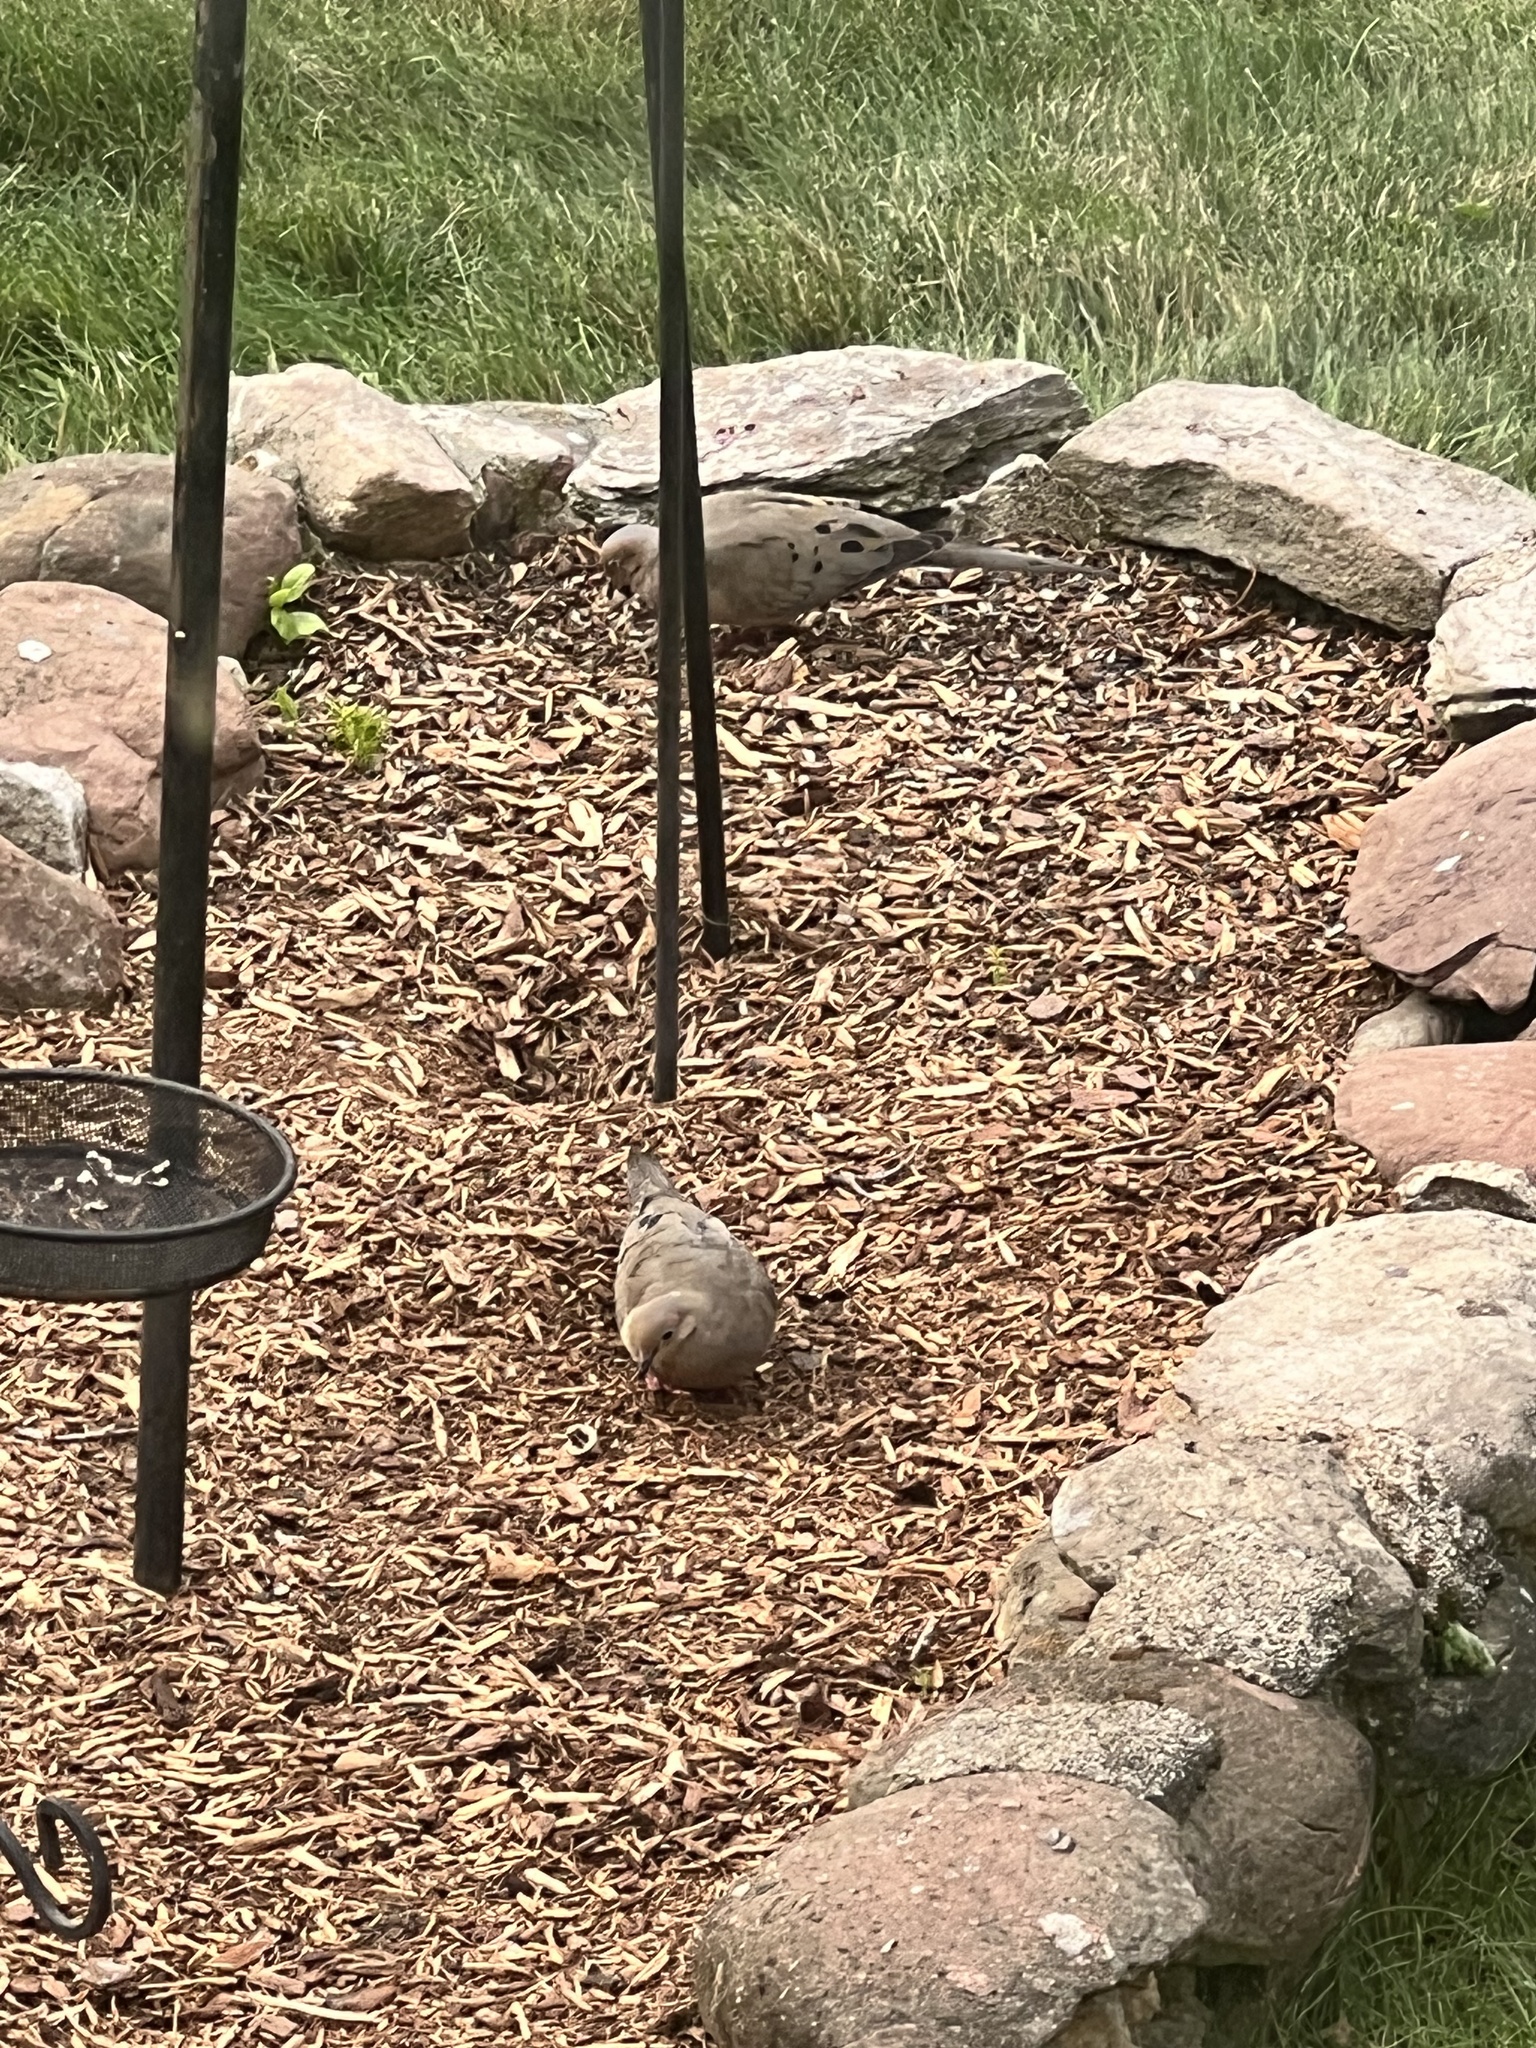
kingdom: Animalia
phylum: Chordata
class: Aves
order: Columbiformes
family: Columbidae
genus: Zenaida
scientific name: Zenaida macroura
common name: Mourning dove
